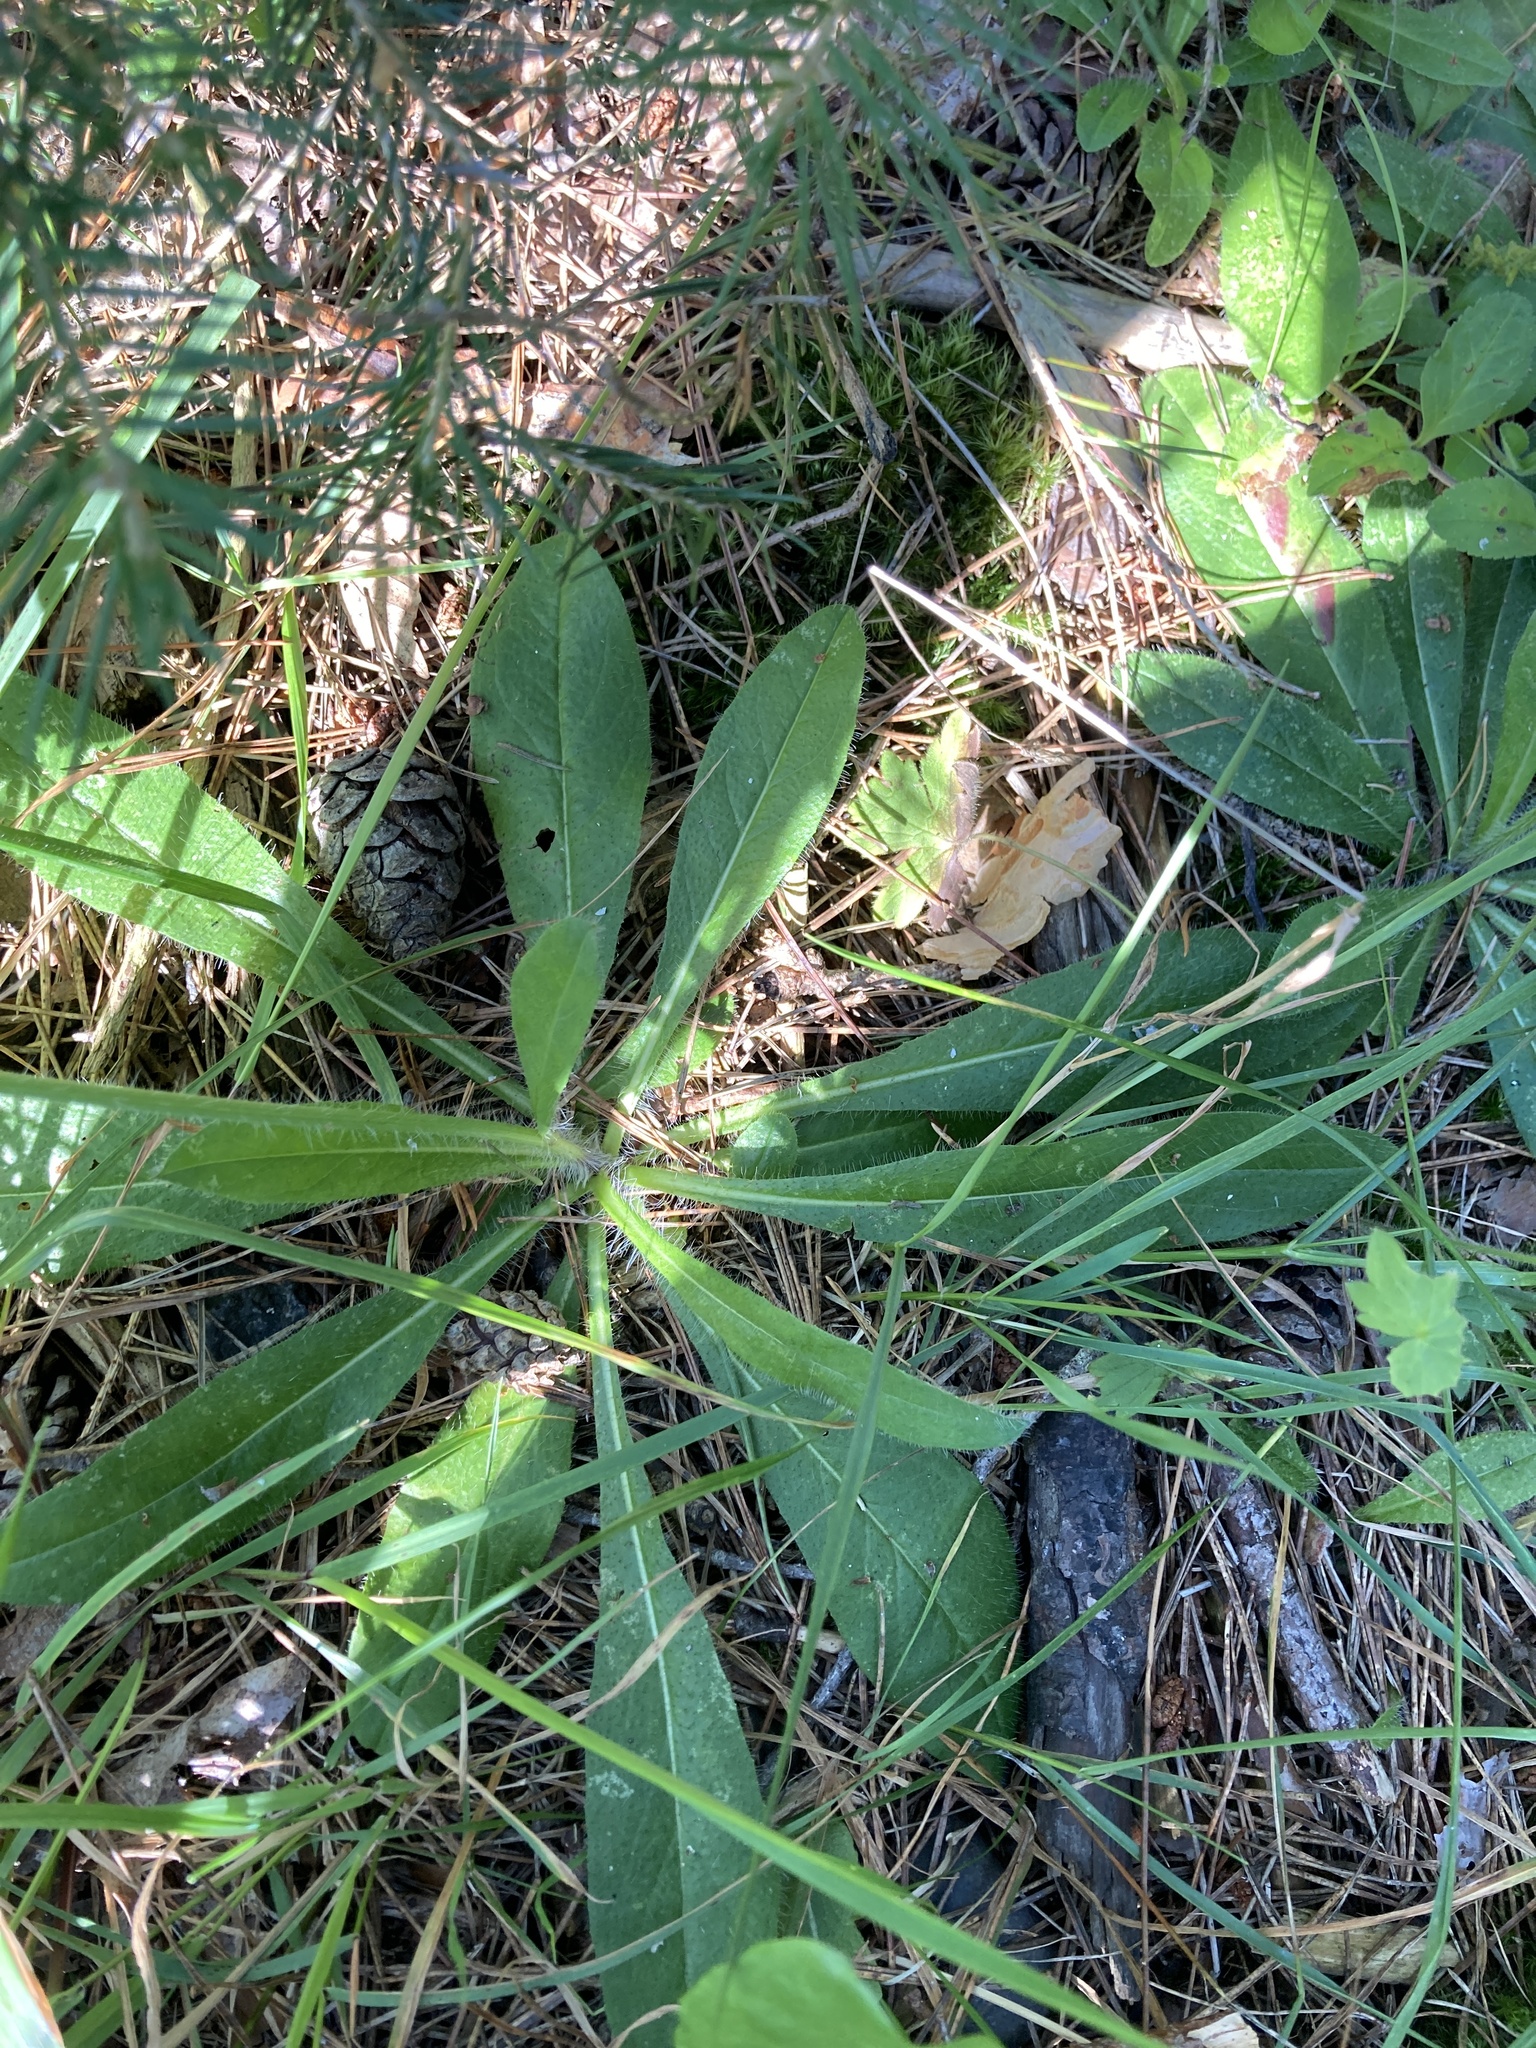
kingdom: Plantae
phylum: Tracheophyta
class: Magnoliopsida
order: Asterales
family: Asteraceae
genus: Pilosella
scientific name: Pilosella aurantiaca
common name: Fox-and-cubs
